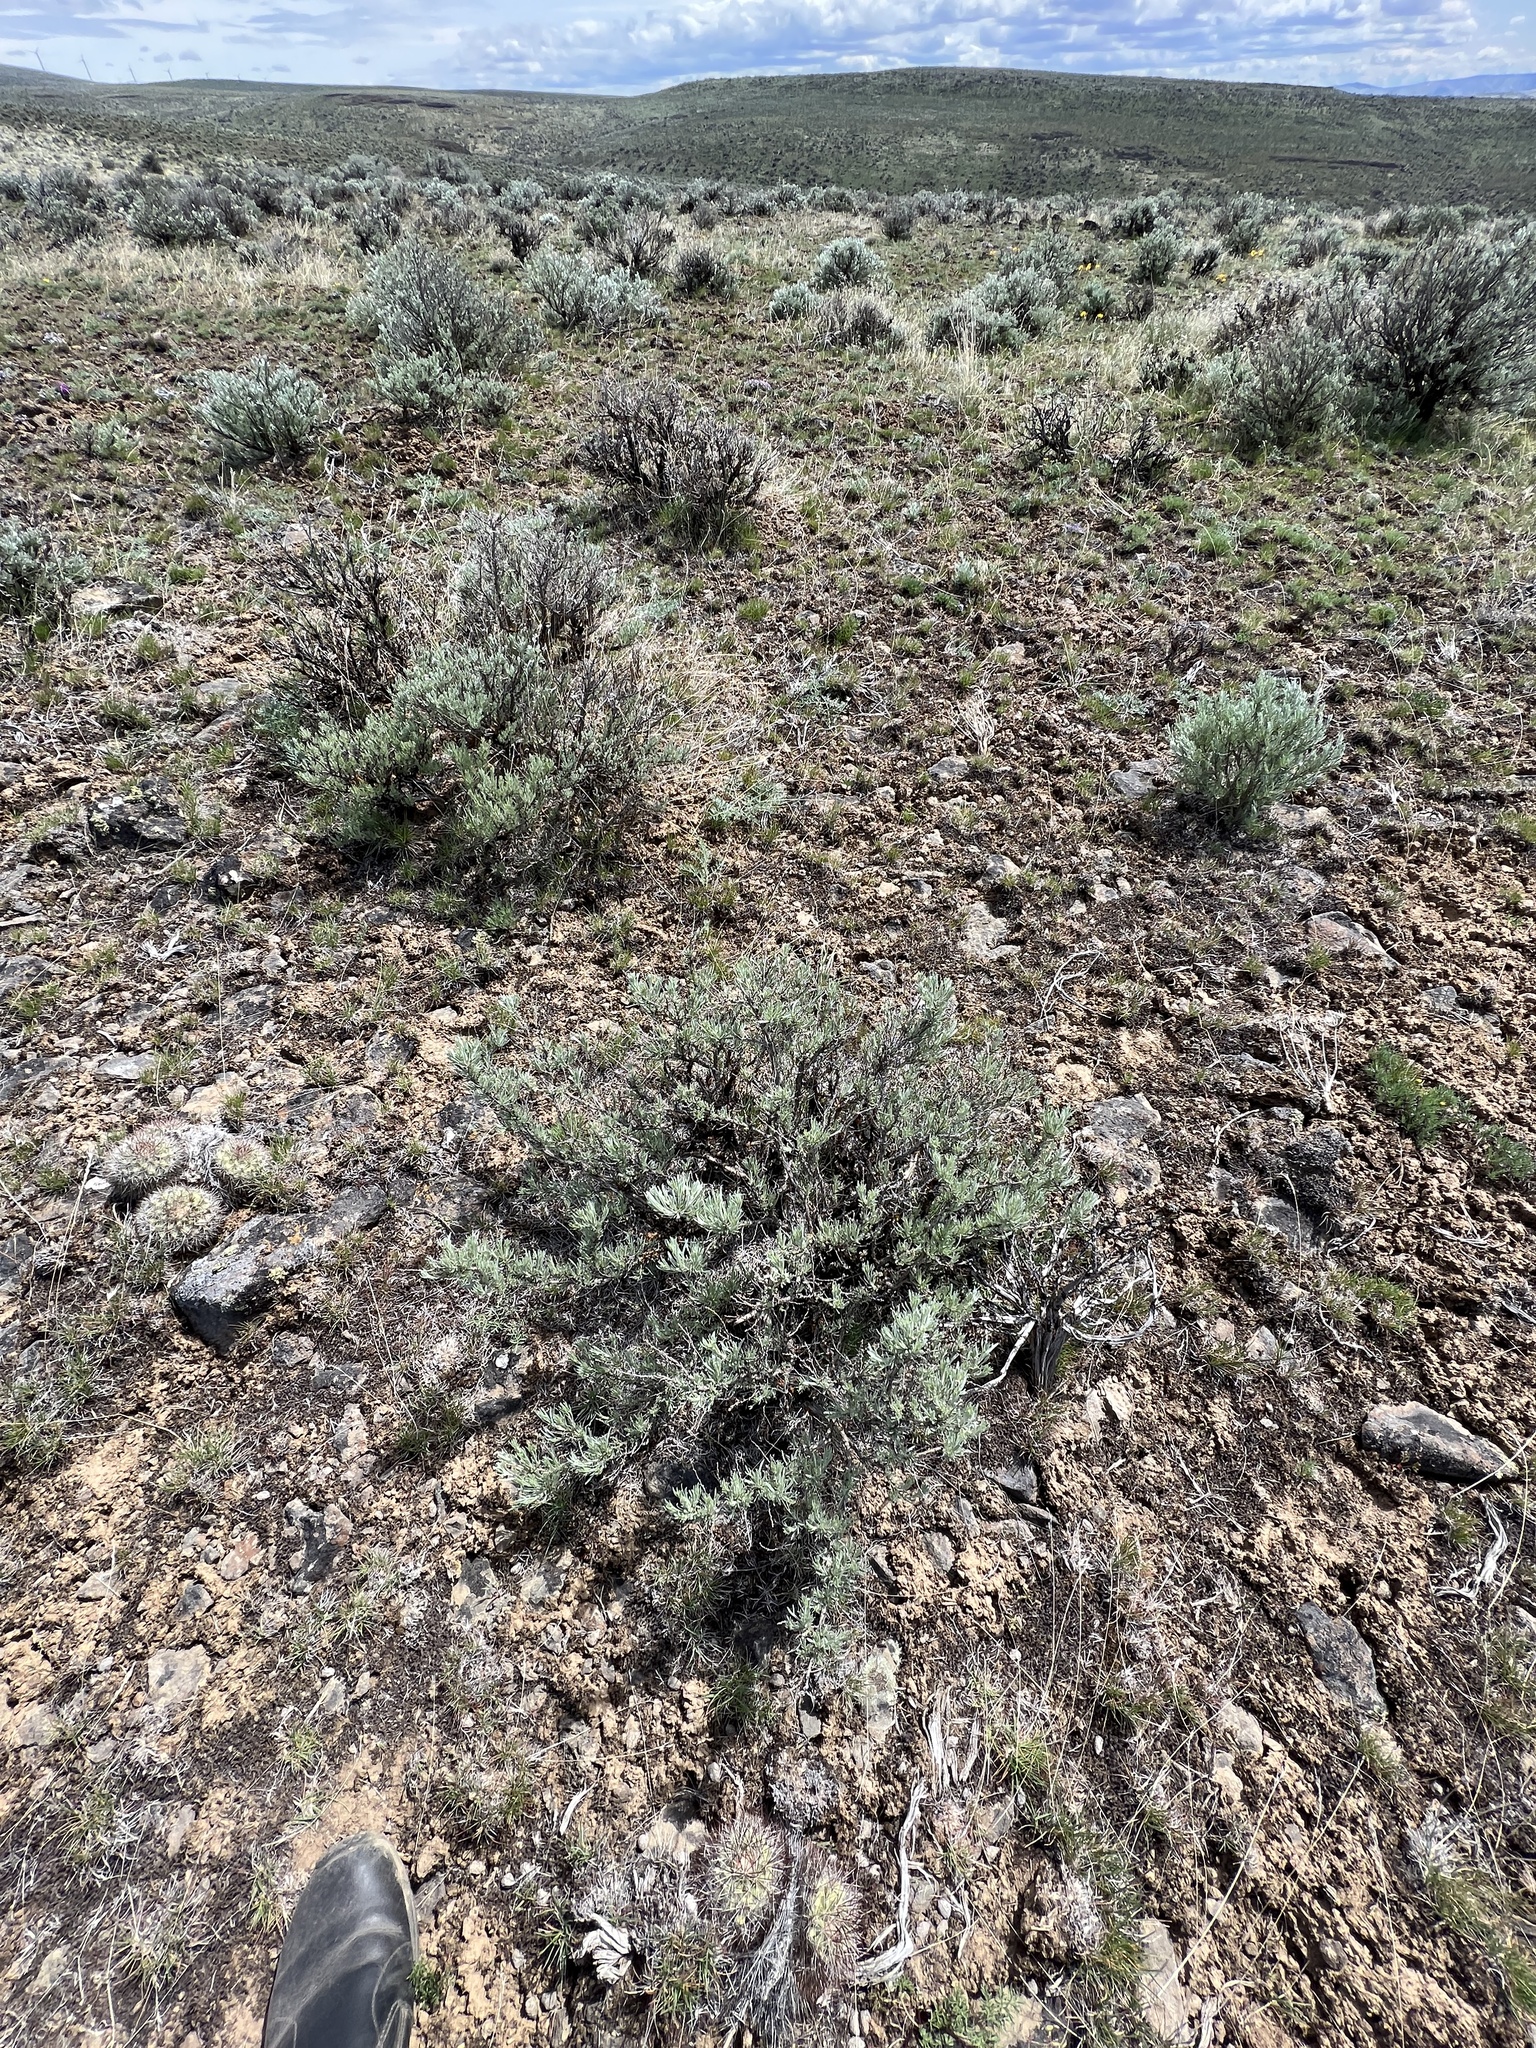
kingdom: Plantae
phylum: Tracheophyta
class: Magnoliopsida
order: Asterales
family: Asteraceae
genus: Artemisia
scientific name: Artemisia rigida
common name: Scabland sagebrush
